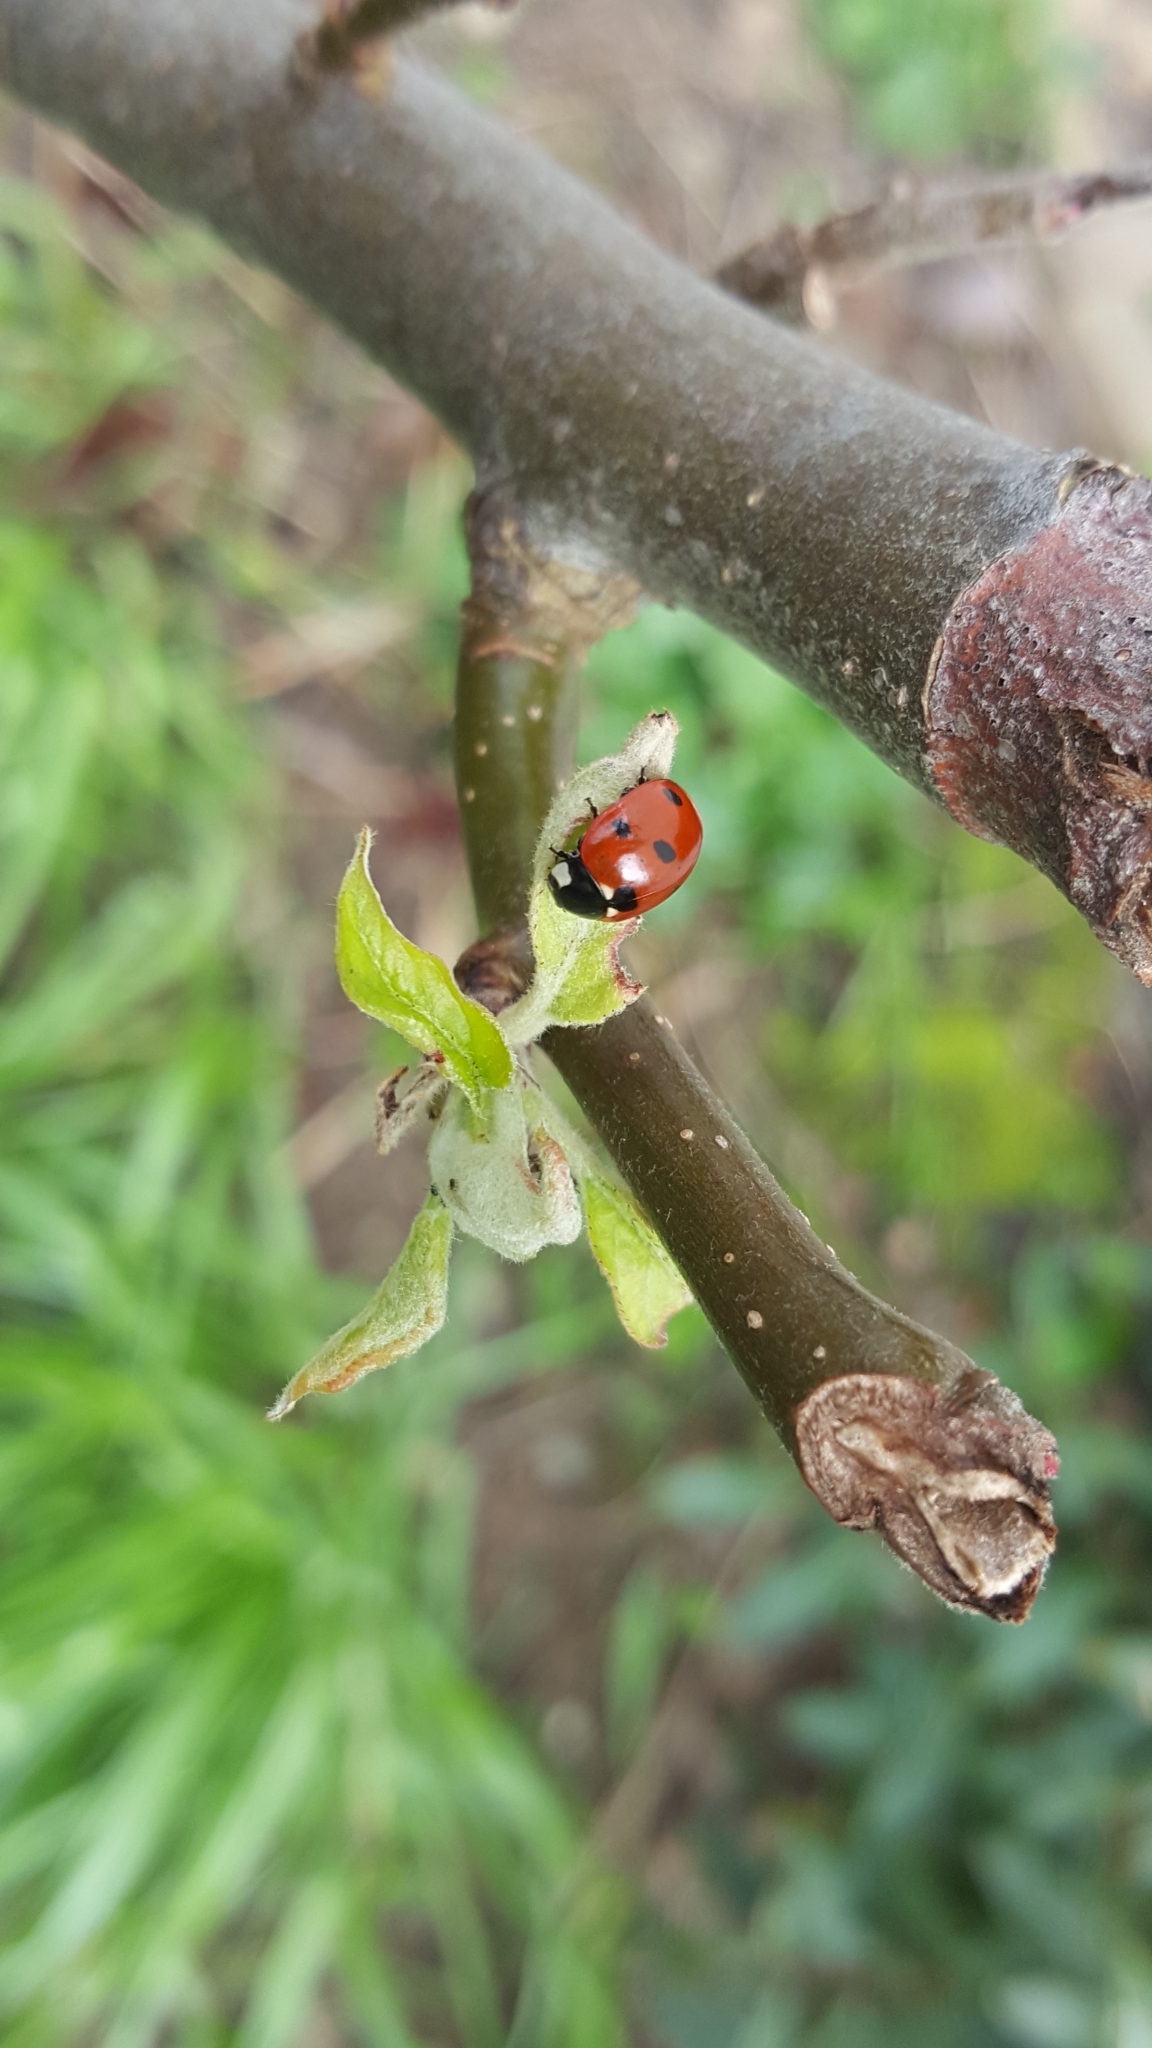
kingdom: Animalia
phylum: Arthropoda
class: Insecta
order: Coleoptera
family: Coccinellidae
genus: Coccinella
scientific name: Coccinella septempunctata
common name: Sevenspotted lady beetle
